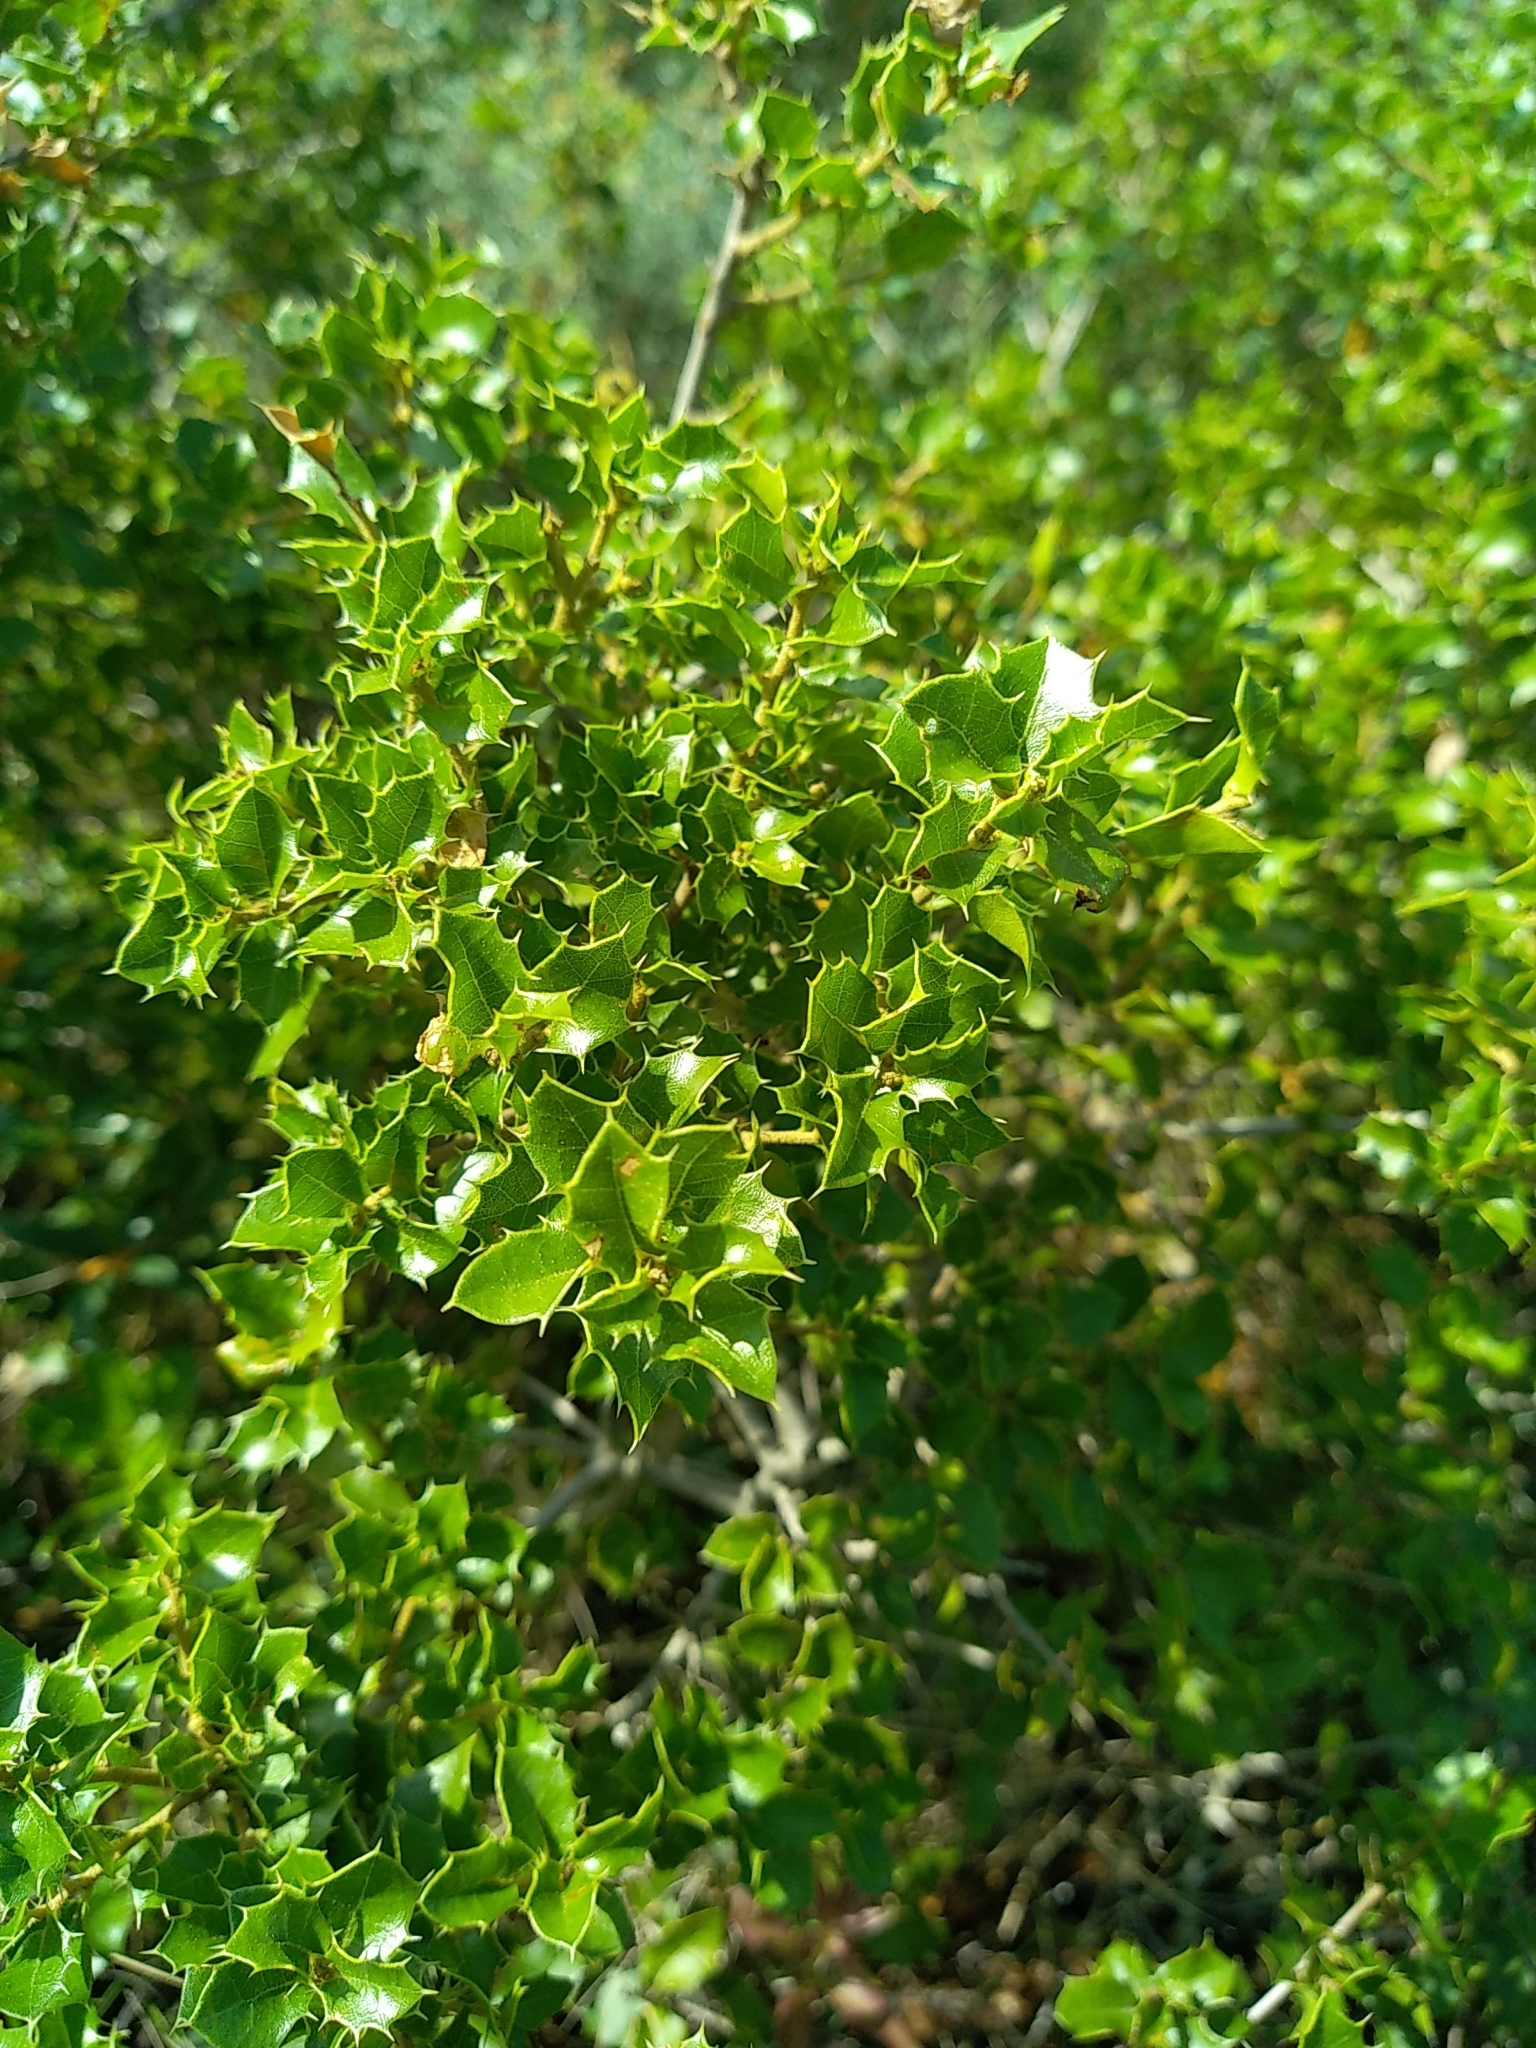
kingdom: Plantae
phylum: Tracheophyta
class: Magnoliopsida
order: Fagales
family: Fagaceae
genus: Quercus
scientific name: Quercus coccifera
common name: Kermes oak
